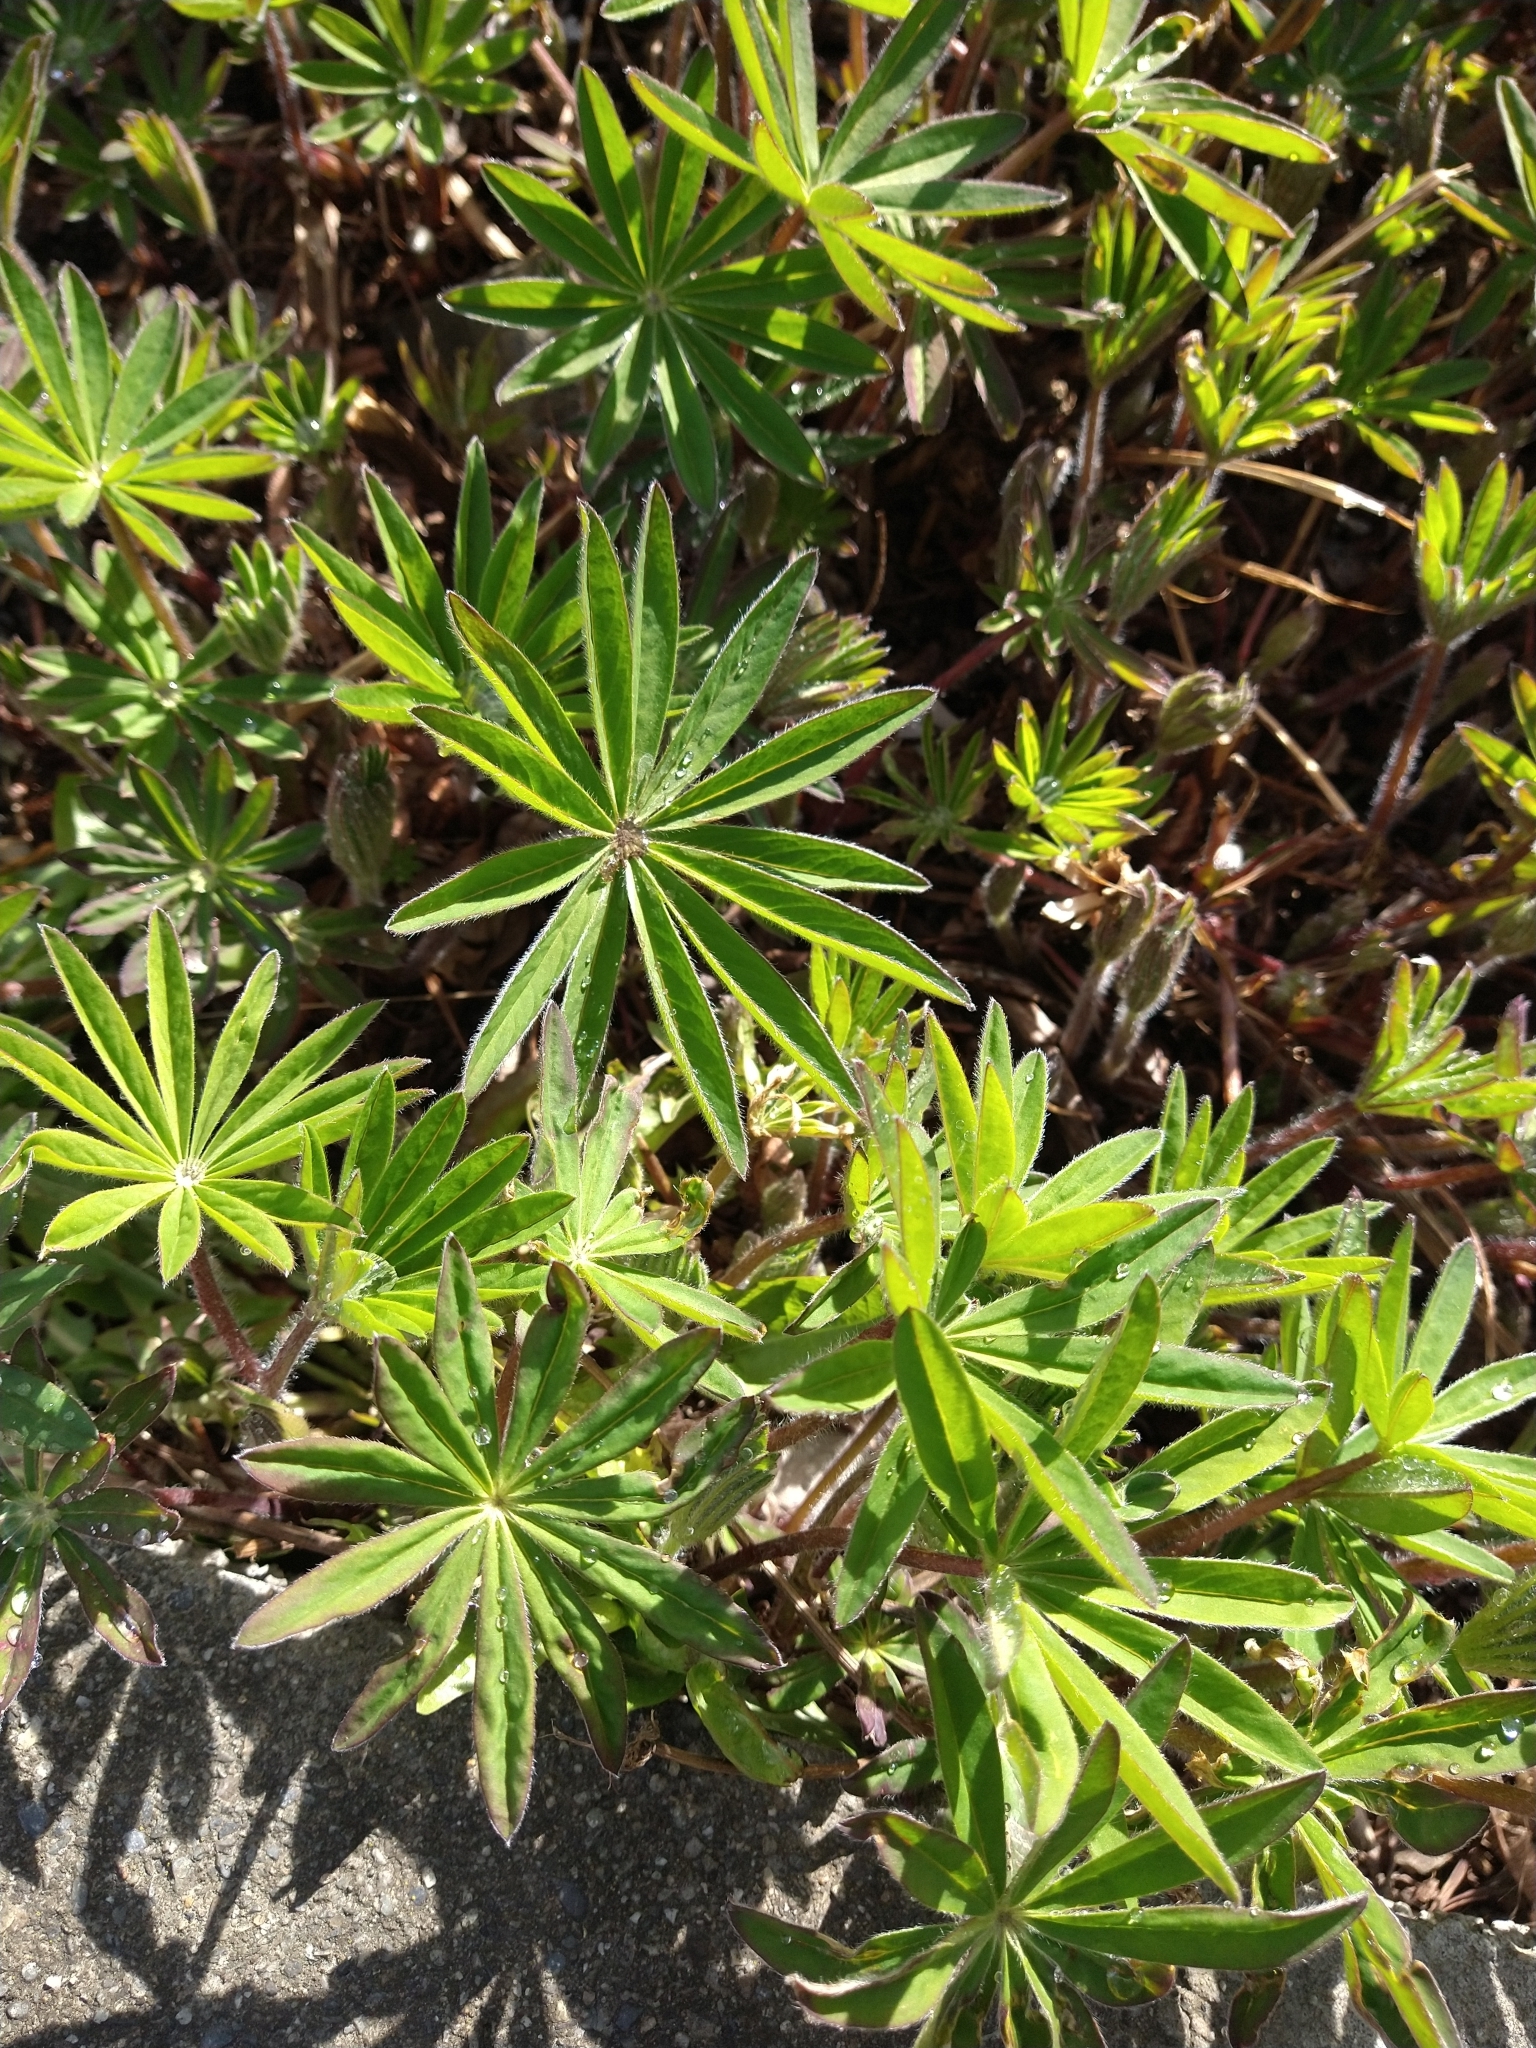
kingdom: Plantae
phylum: Tracheophyta
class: Magnoliopsida
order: Fabales
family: Fabaceae
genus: Lupinus
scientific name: Lupinus polyphyllus
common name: Garden lupin
